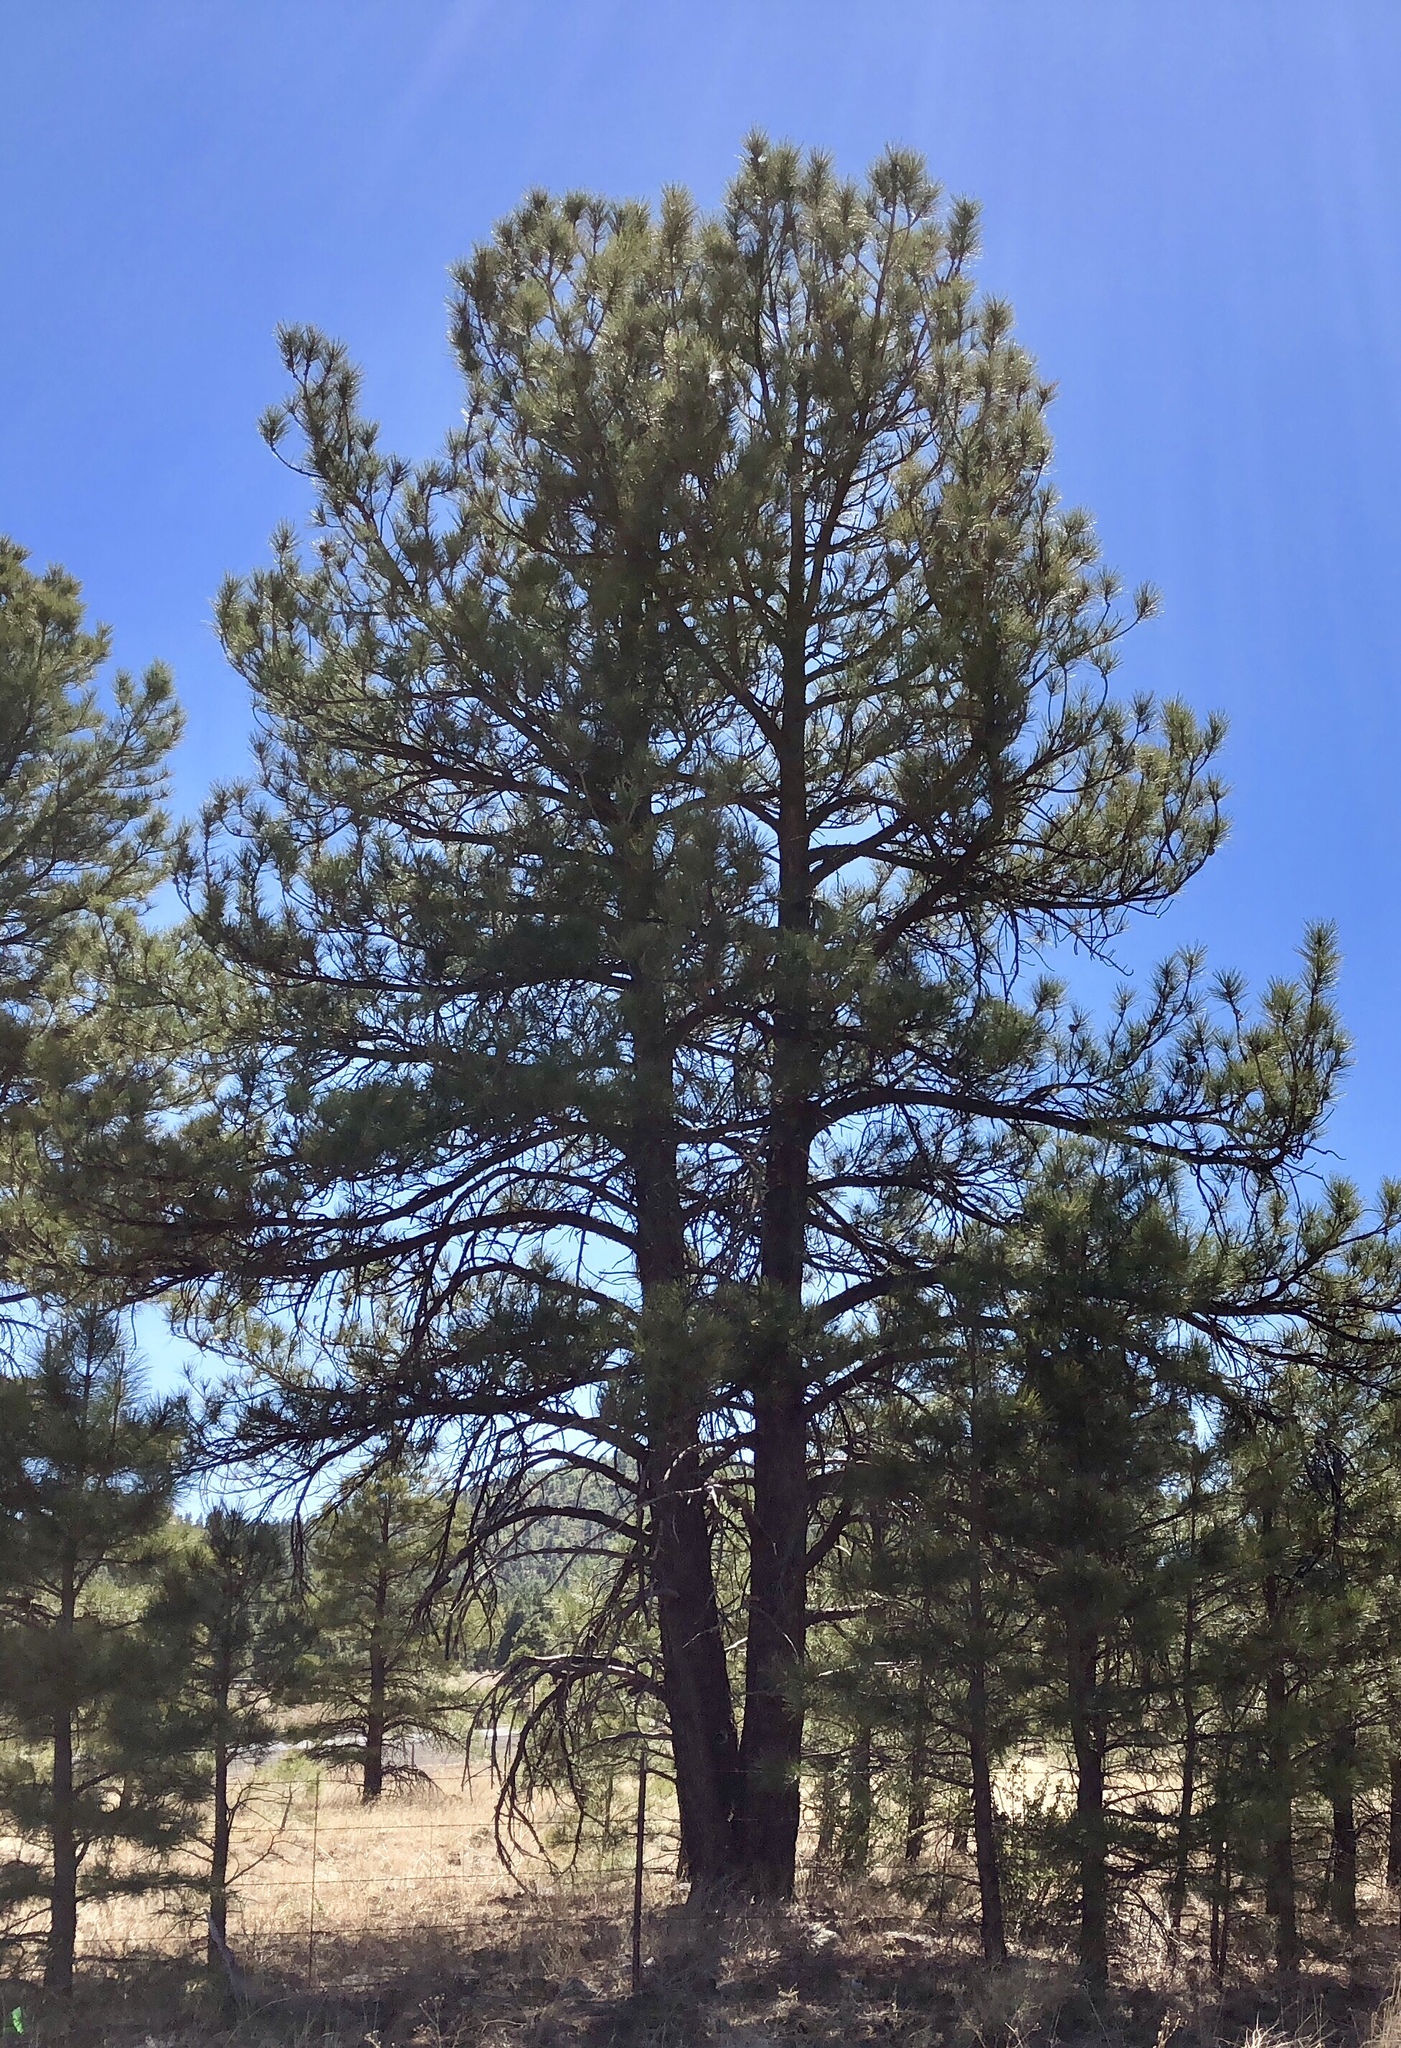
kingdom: Plantae
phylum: Tracheophyta
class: Pinopsida
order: Pinales
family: Pinaceae
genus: Pinus
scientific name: Pinus ponderosa
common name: Western yellow-pine
